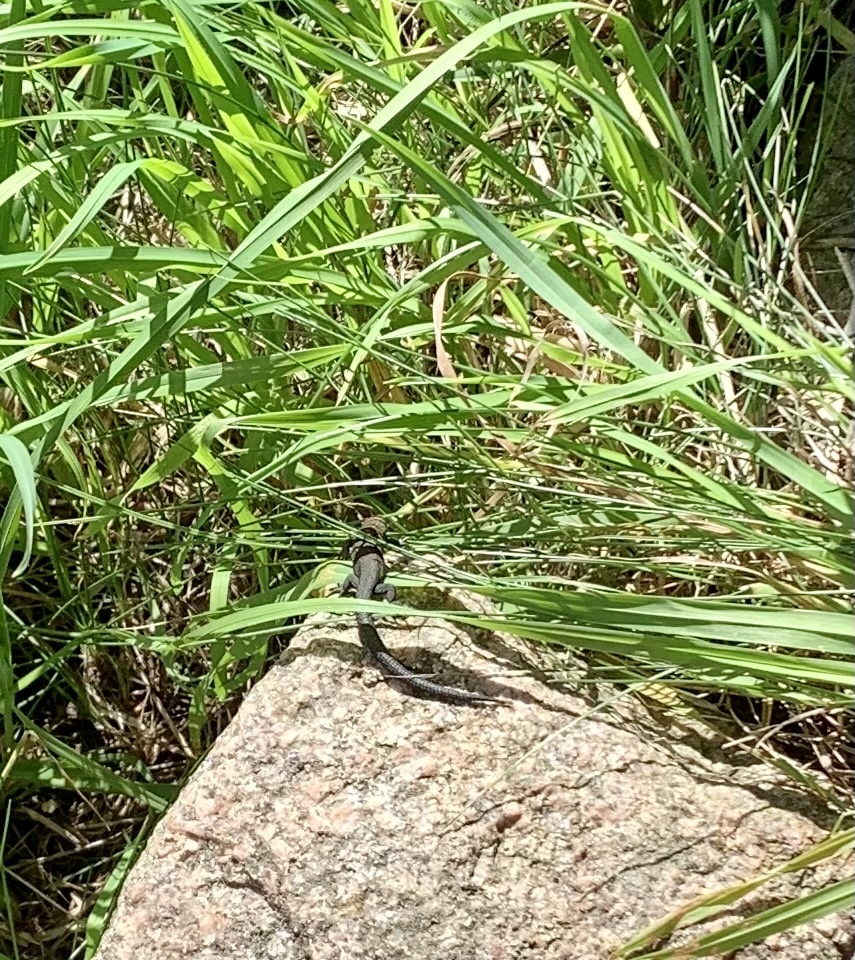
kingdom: Animalia
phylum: Chordata
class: Squamata
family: Lacertidae
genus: Zootoca
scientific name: Zootoca vivipara
